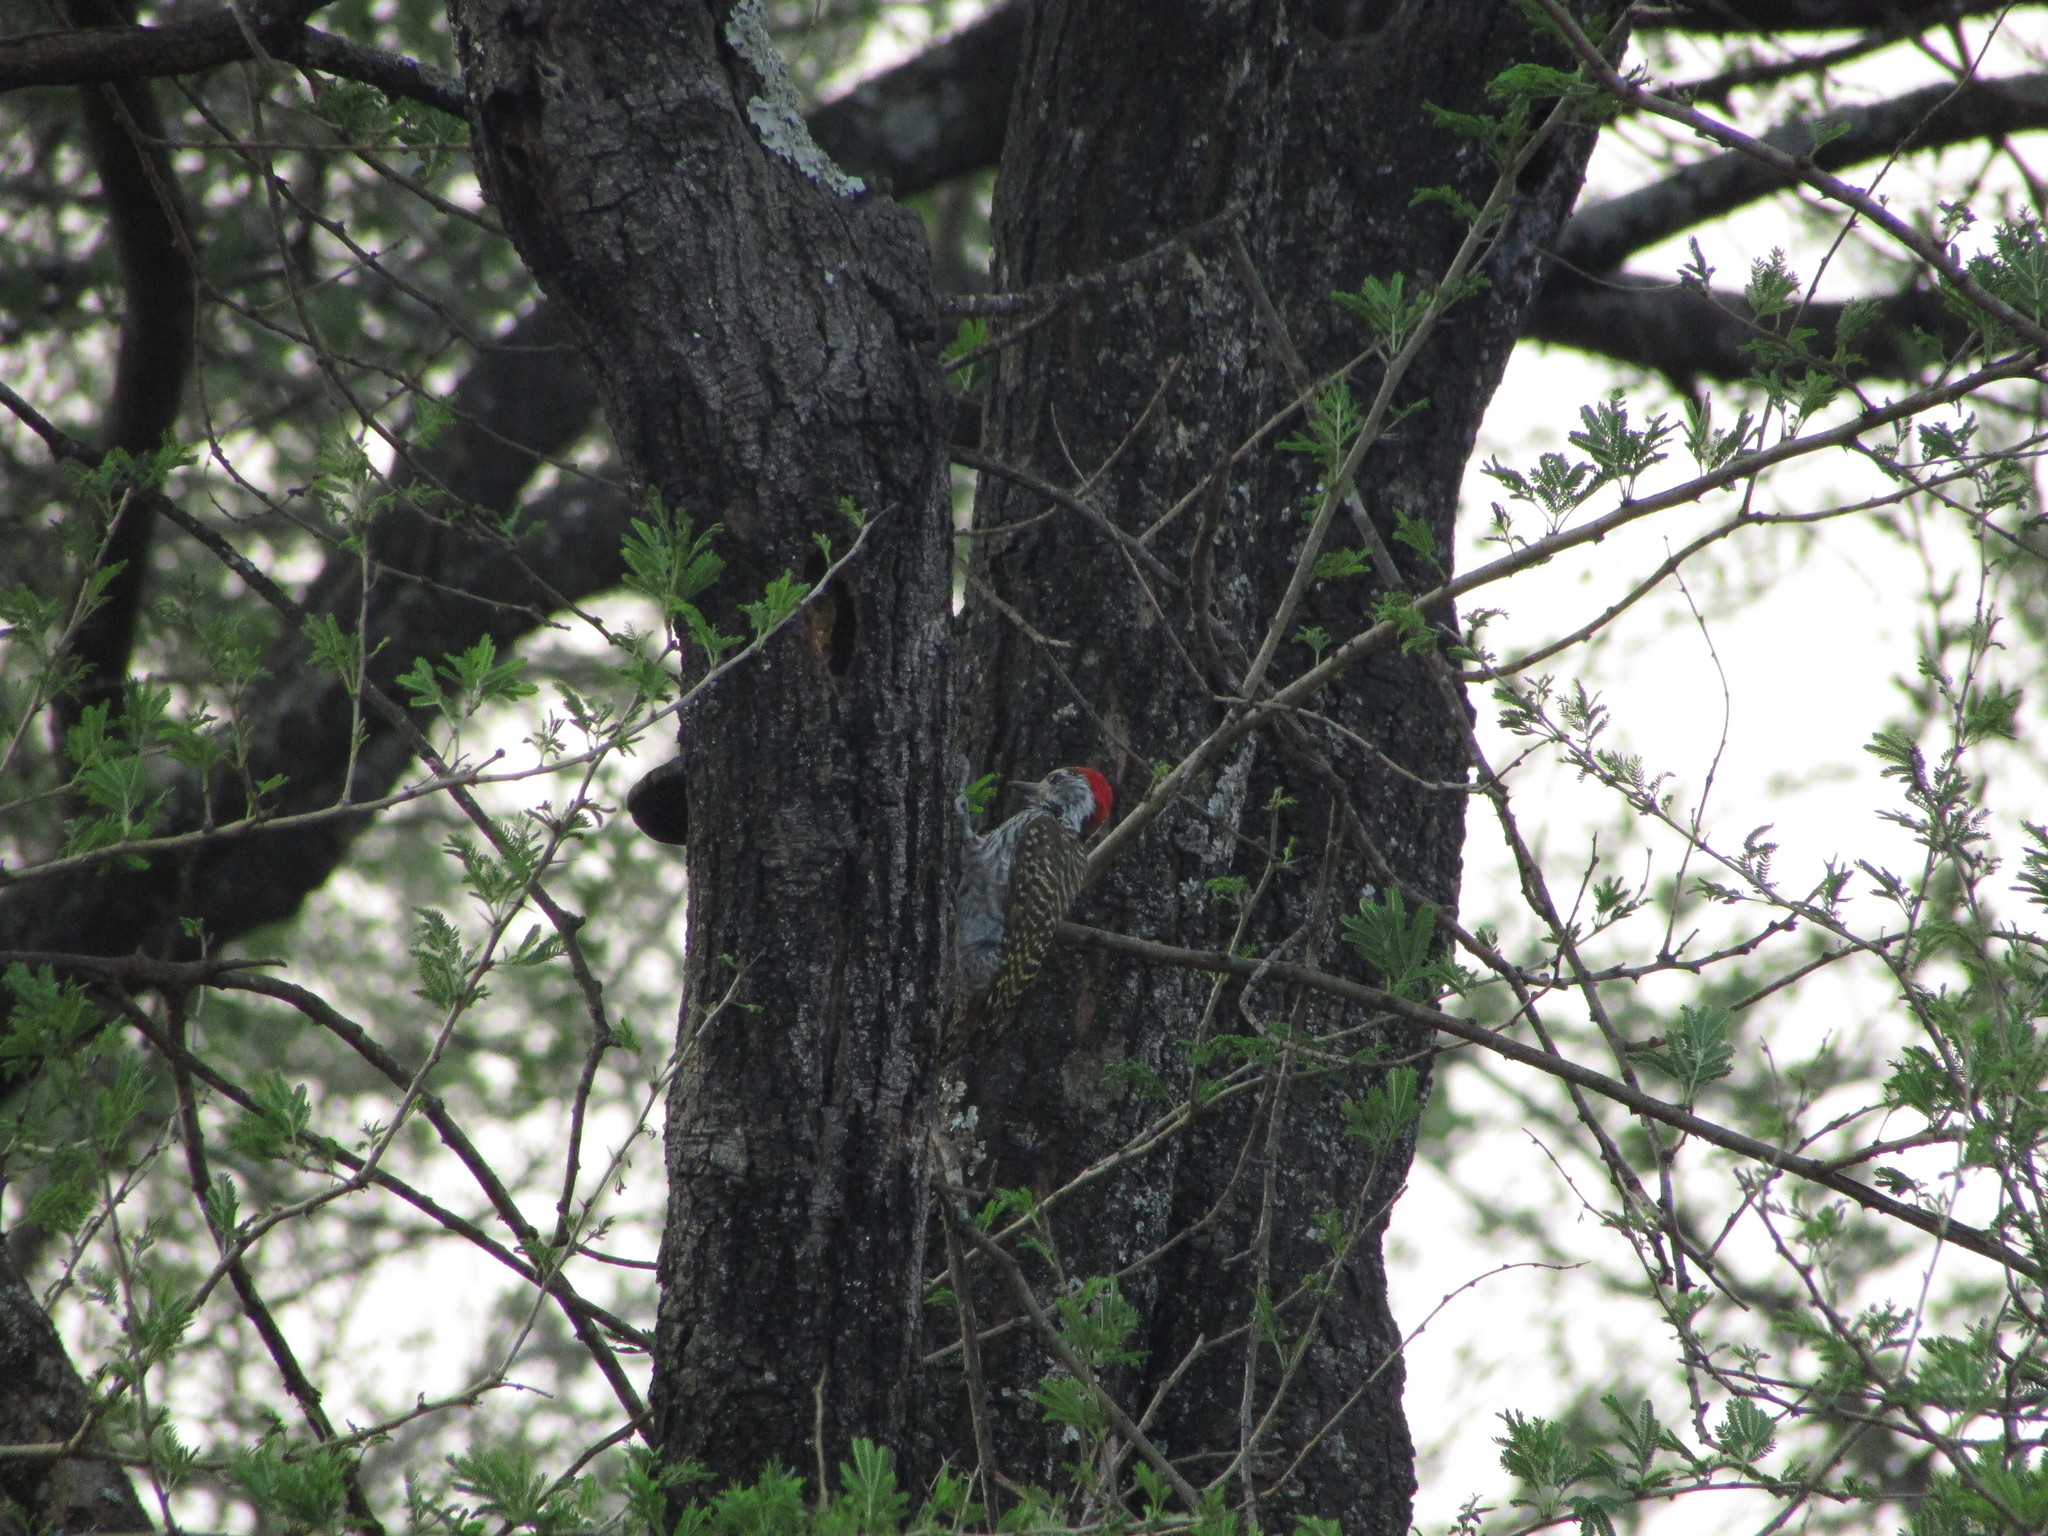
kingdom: Animalia
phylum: Chordata
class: Aves
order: Piciformes
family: Picidae
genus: Dendropicos
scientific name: Dendropicos fuscescens
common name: Cardinal woodpecker
